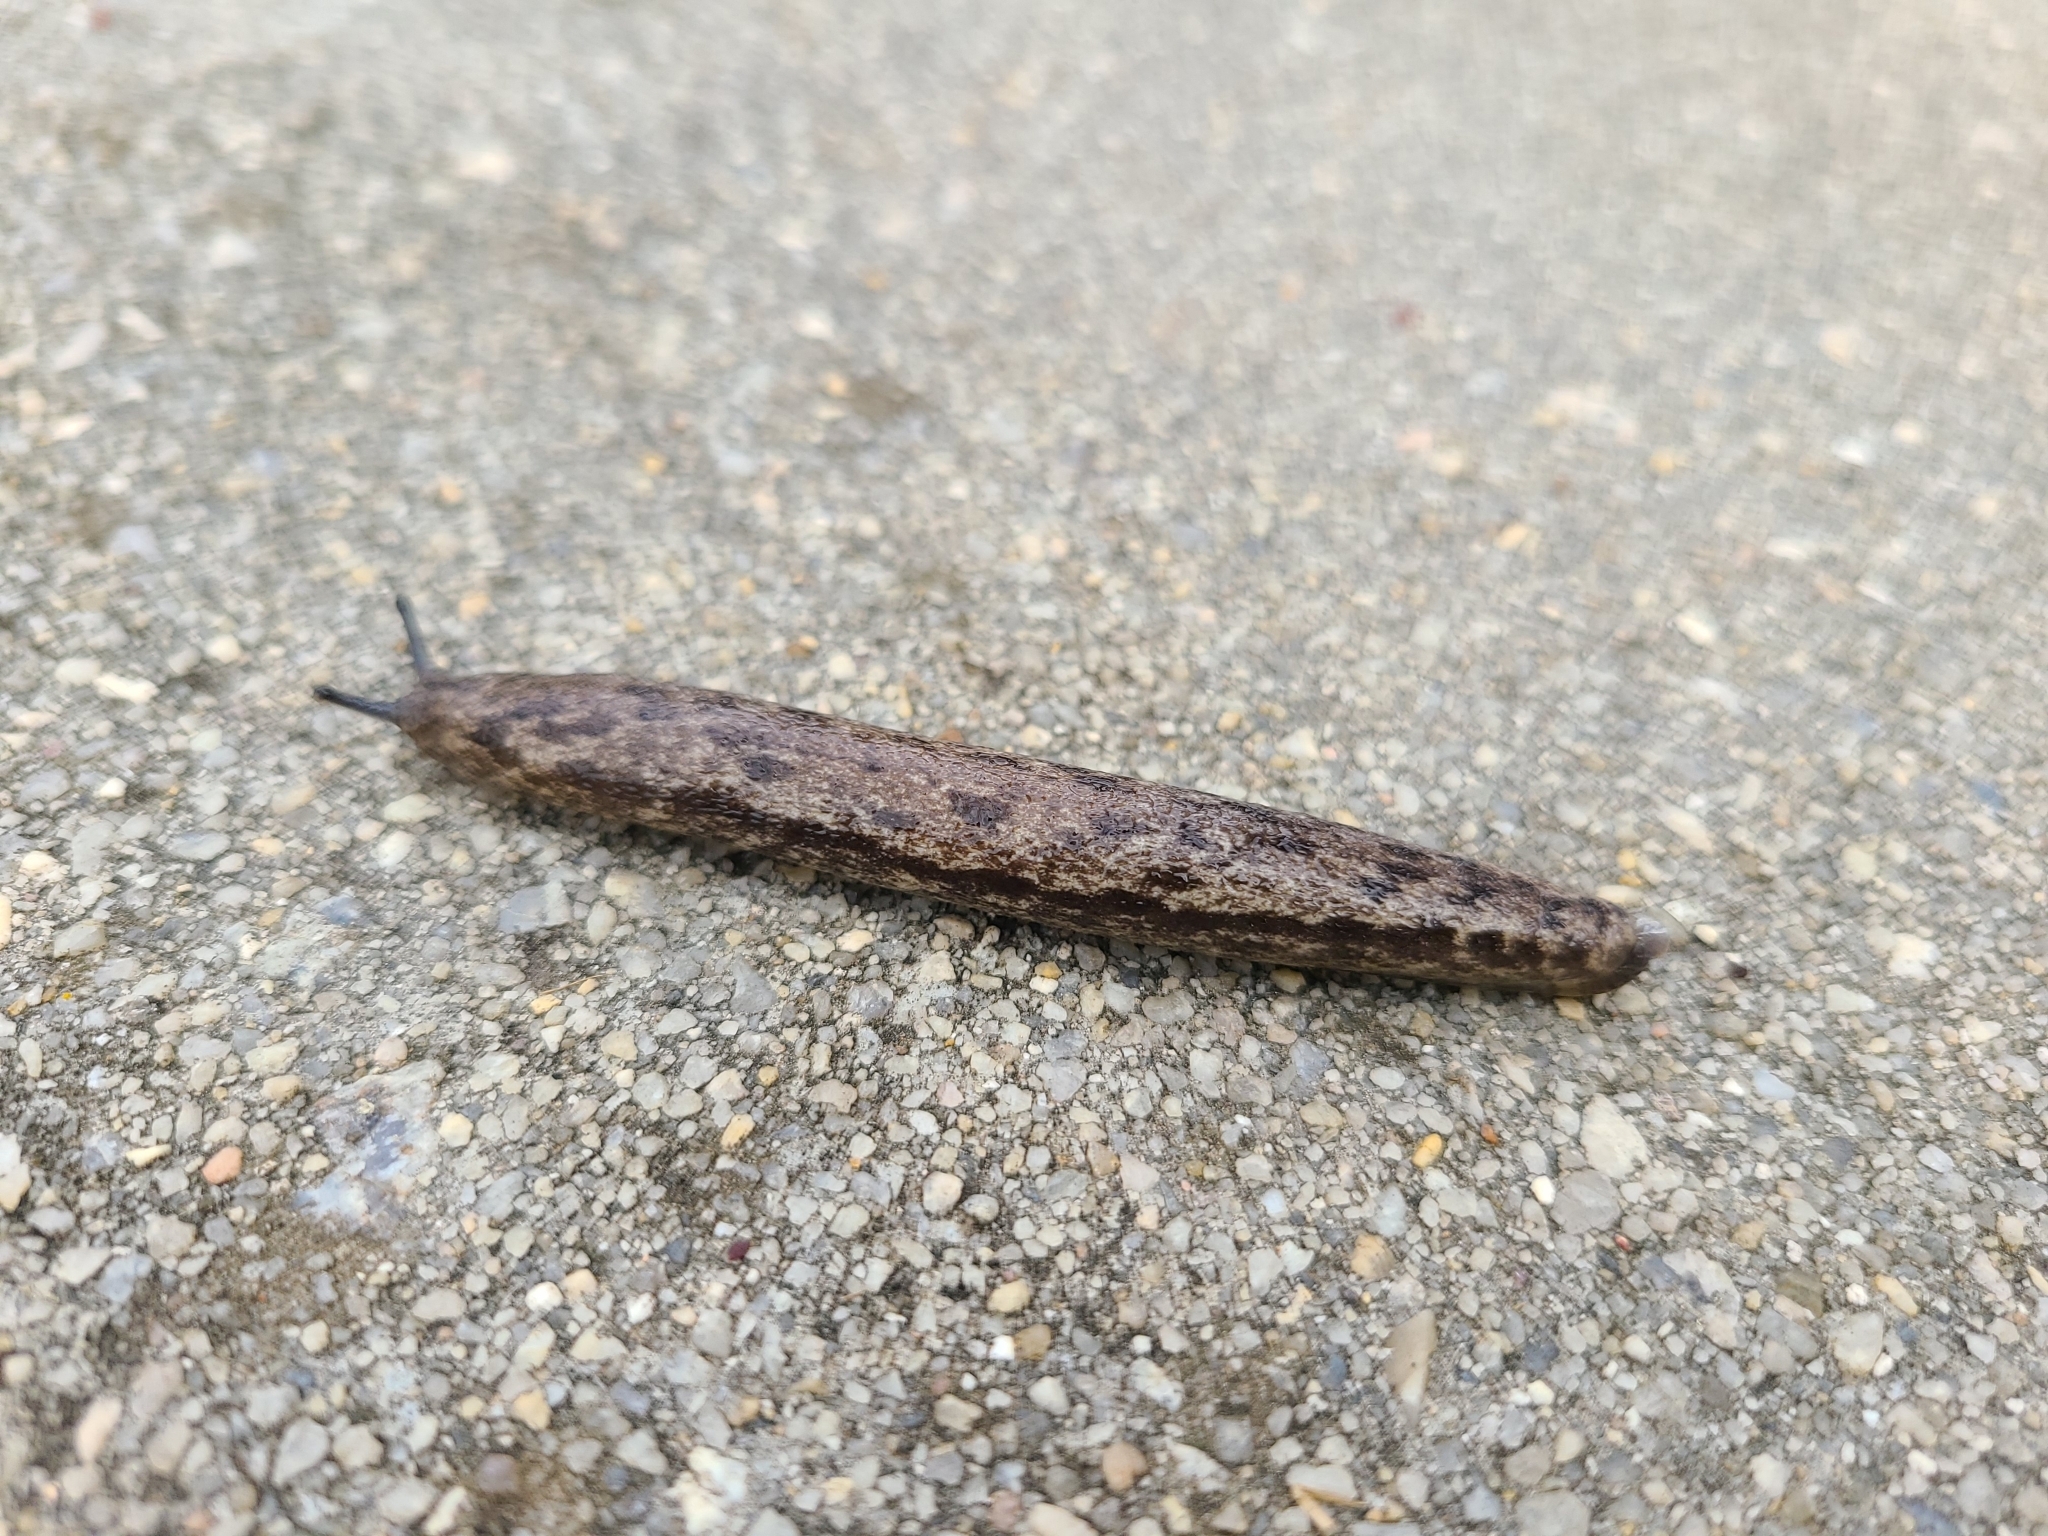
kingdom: Animalia
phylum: Mollusca
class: Gastropoda
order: Stylommatophora
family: Philomycidae
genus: Megapallifera
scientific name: Megapallifera mutabilis
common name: Changeable mantleslug
